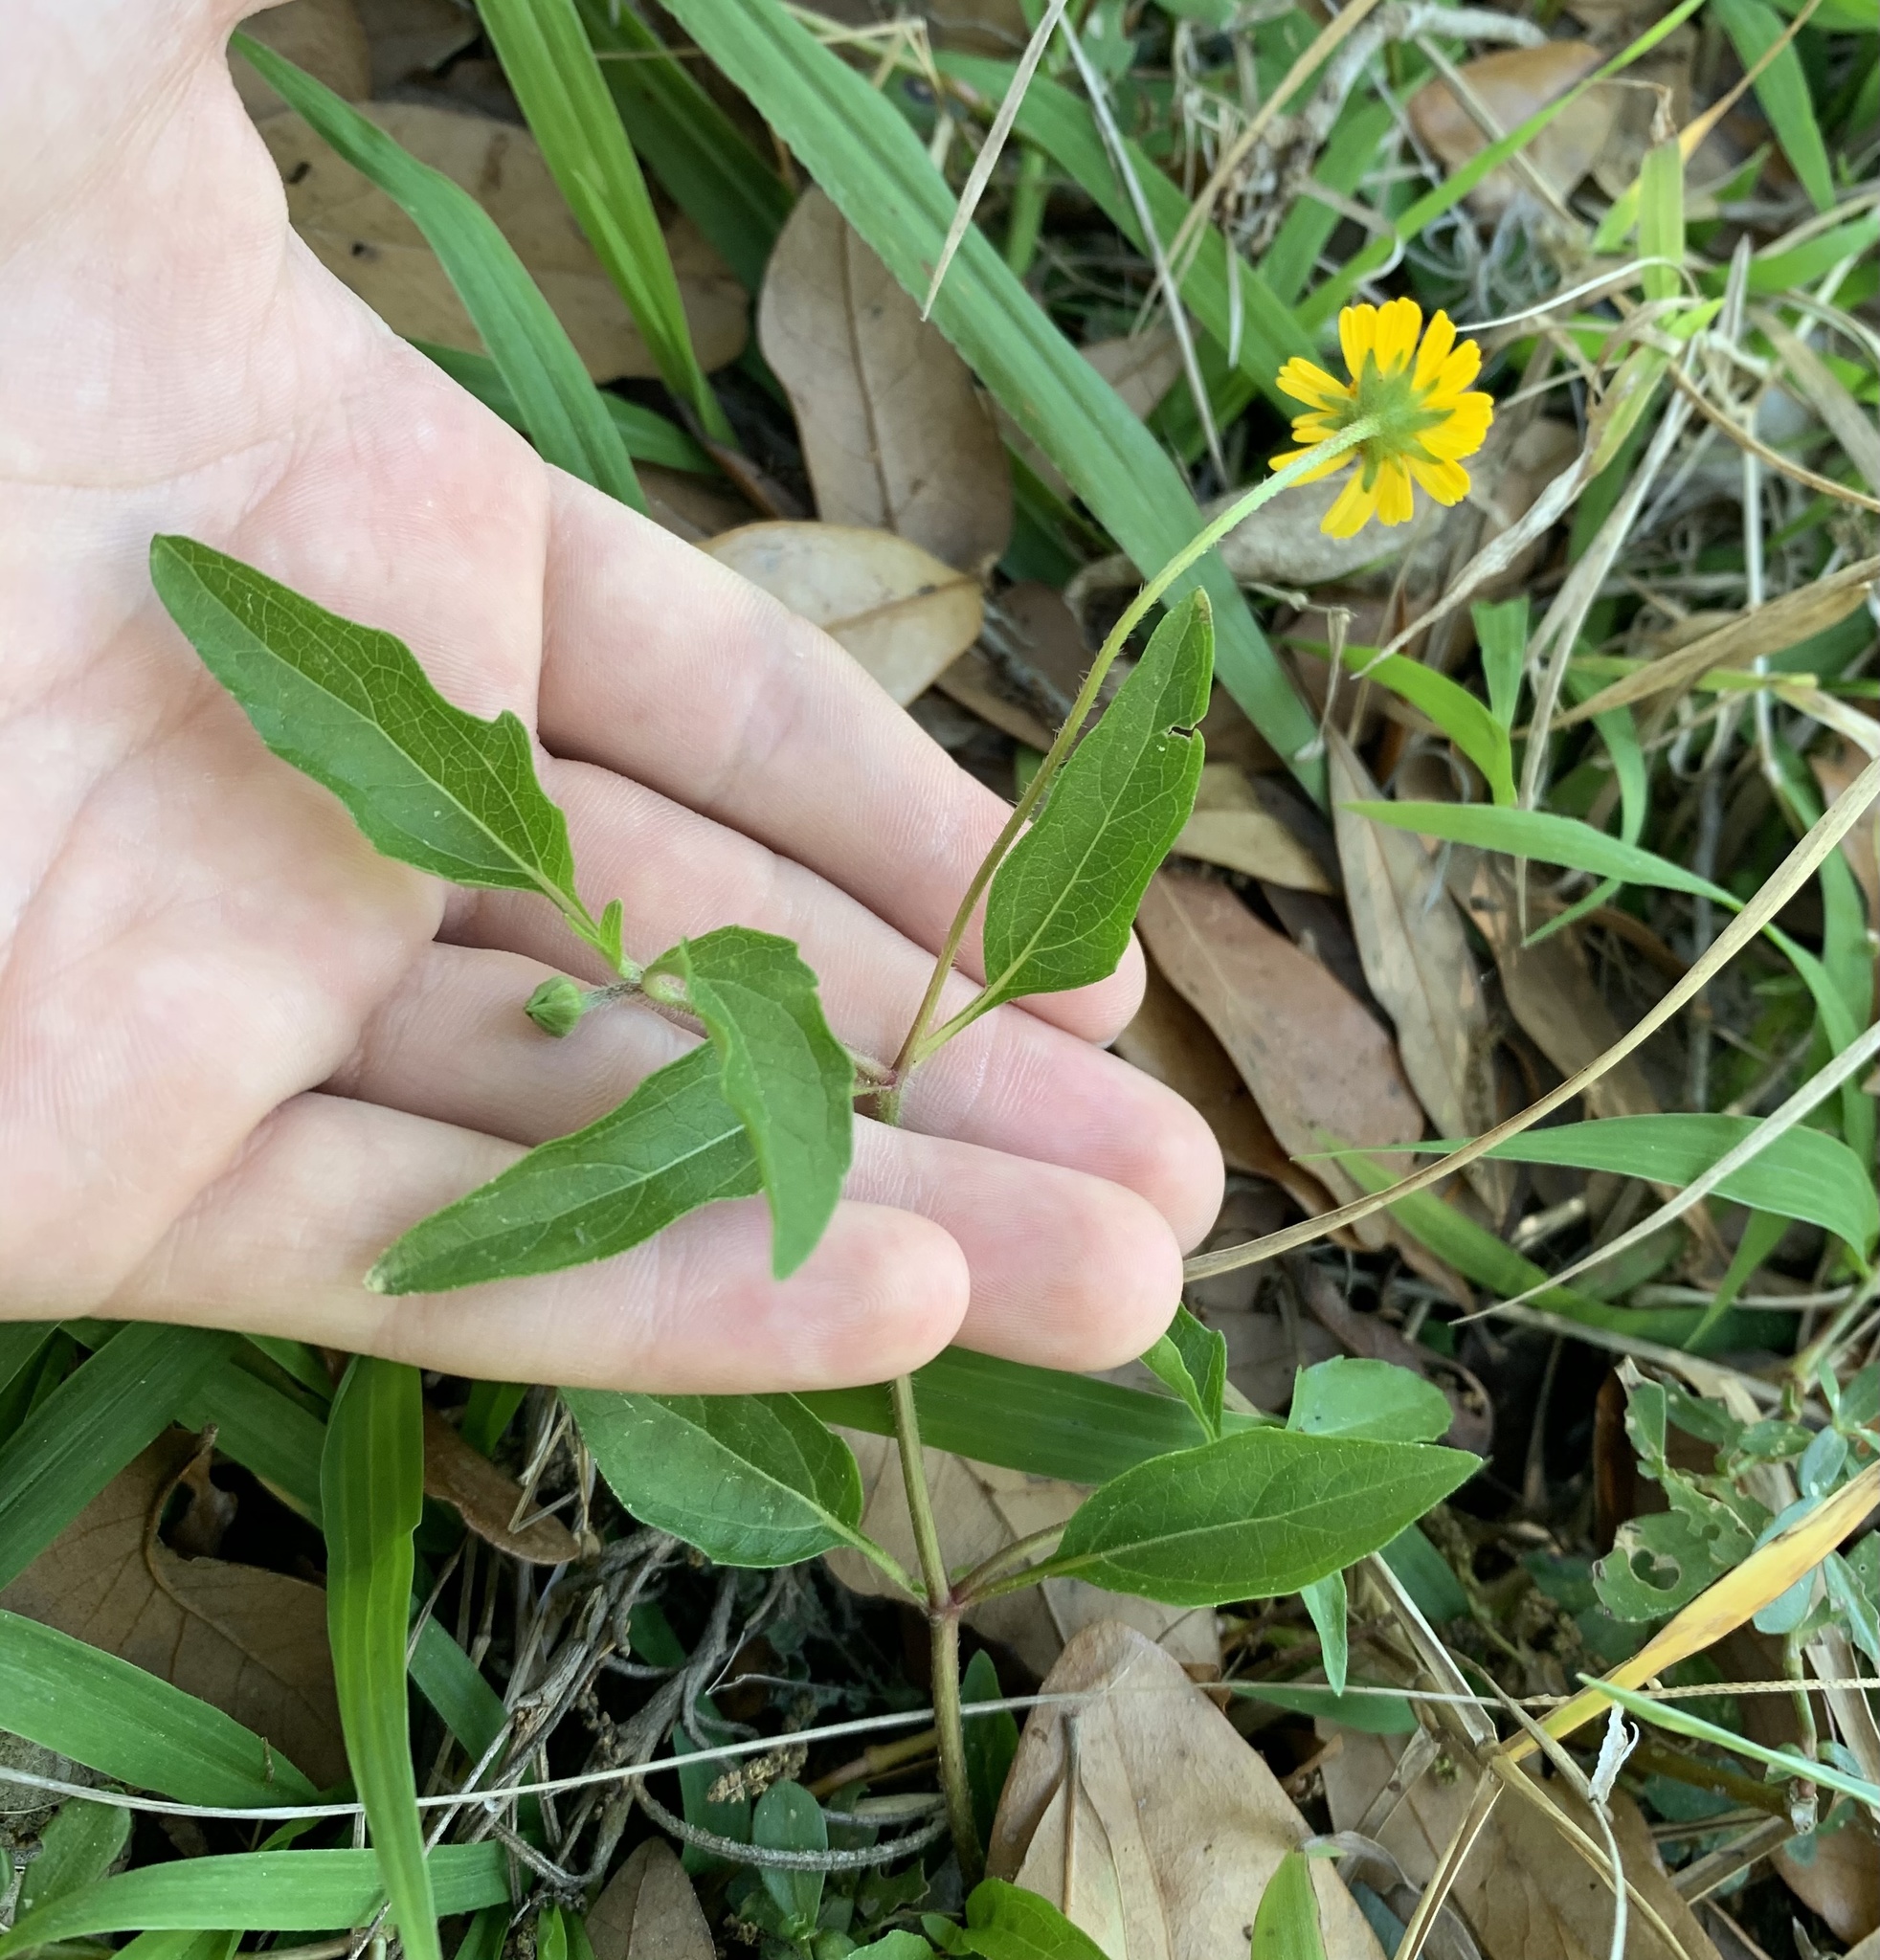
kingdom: Plantae
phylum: Tracheophyta
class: Magnoliopsida
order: Asterales
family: Asteraceae
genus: Acmella
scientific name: Acmella repens
